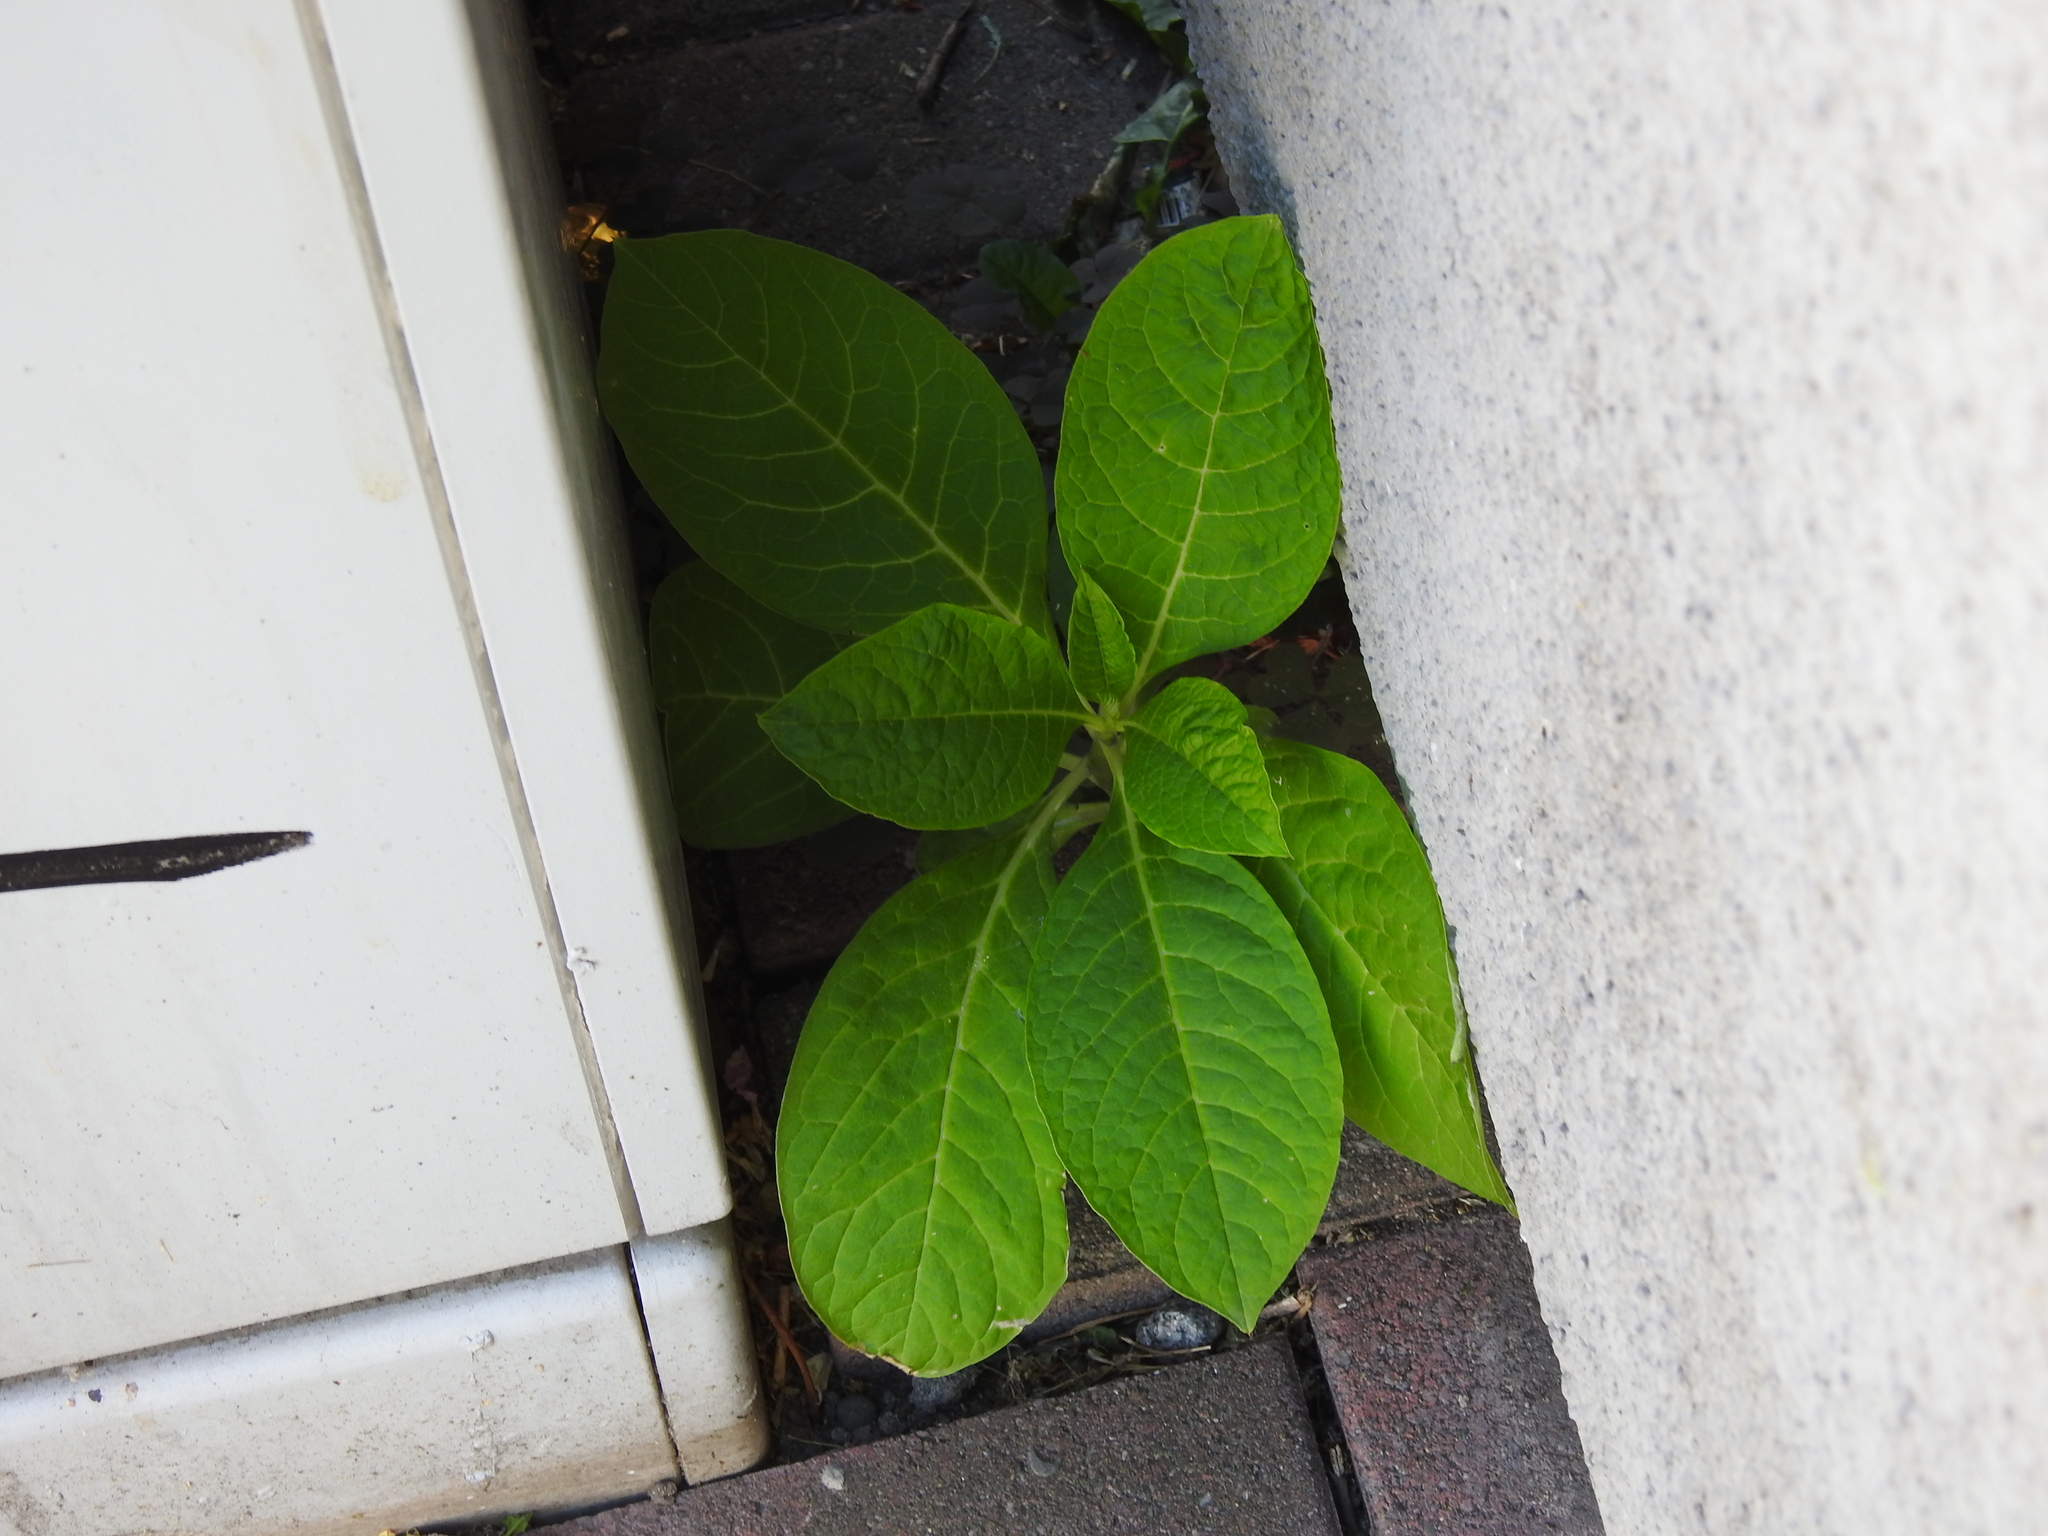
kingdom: Plantae
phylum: Tracheophyta
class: Magnoliopsida
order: Caryophyllales
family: Phytolaccaceae
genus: Phytolacca
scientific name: Phytolacca acinosa
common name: Indian pokeweed
